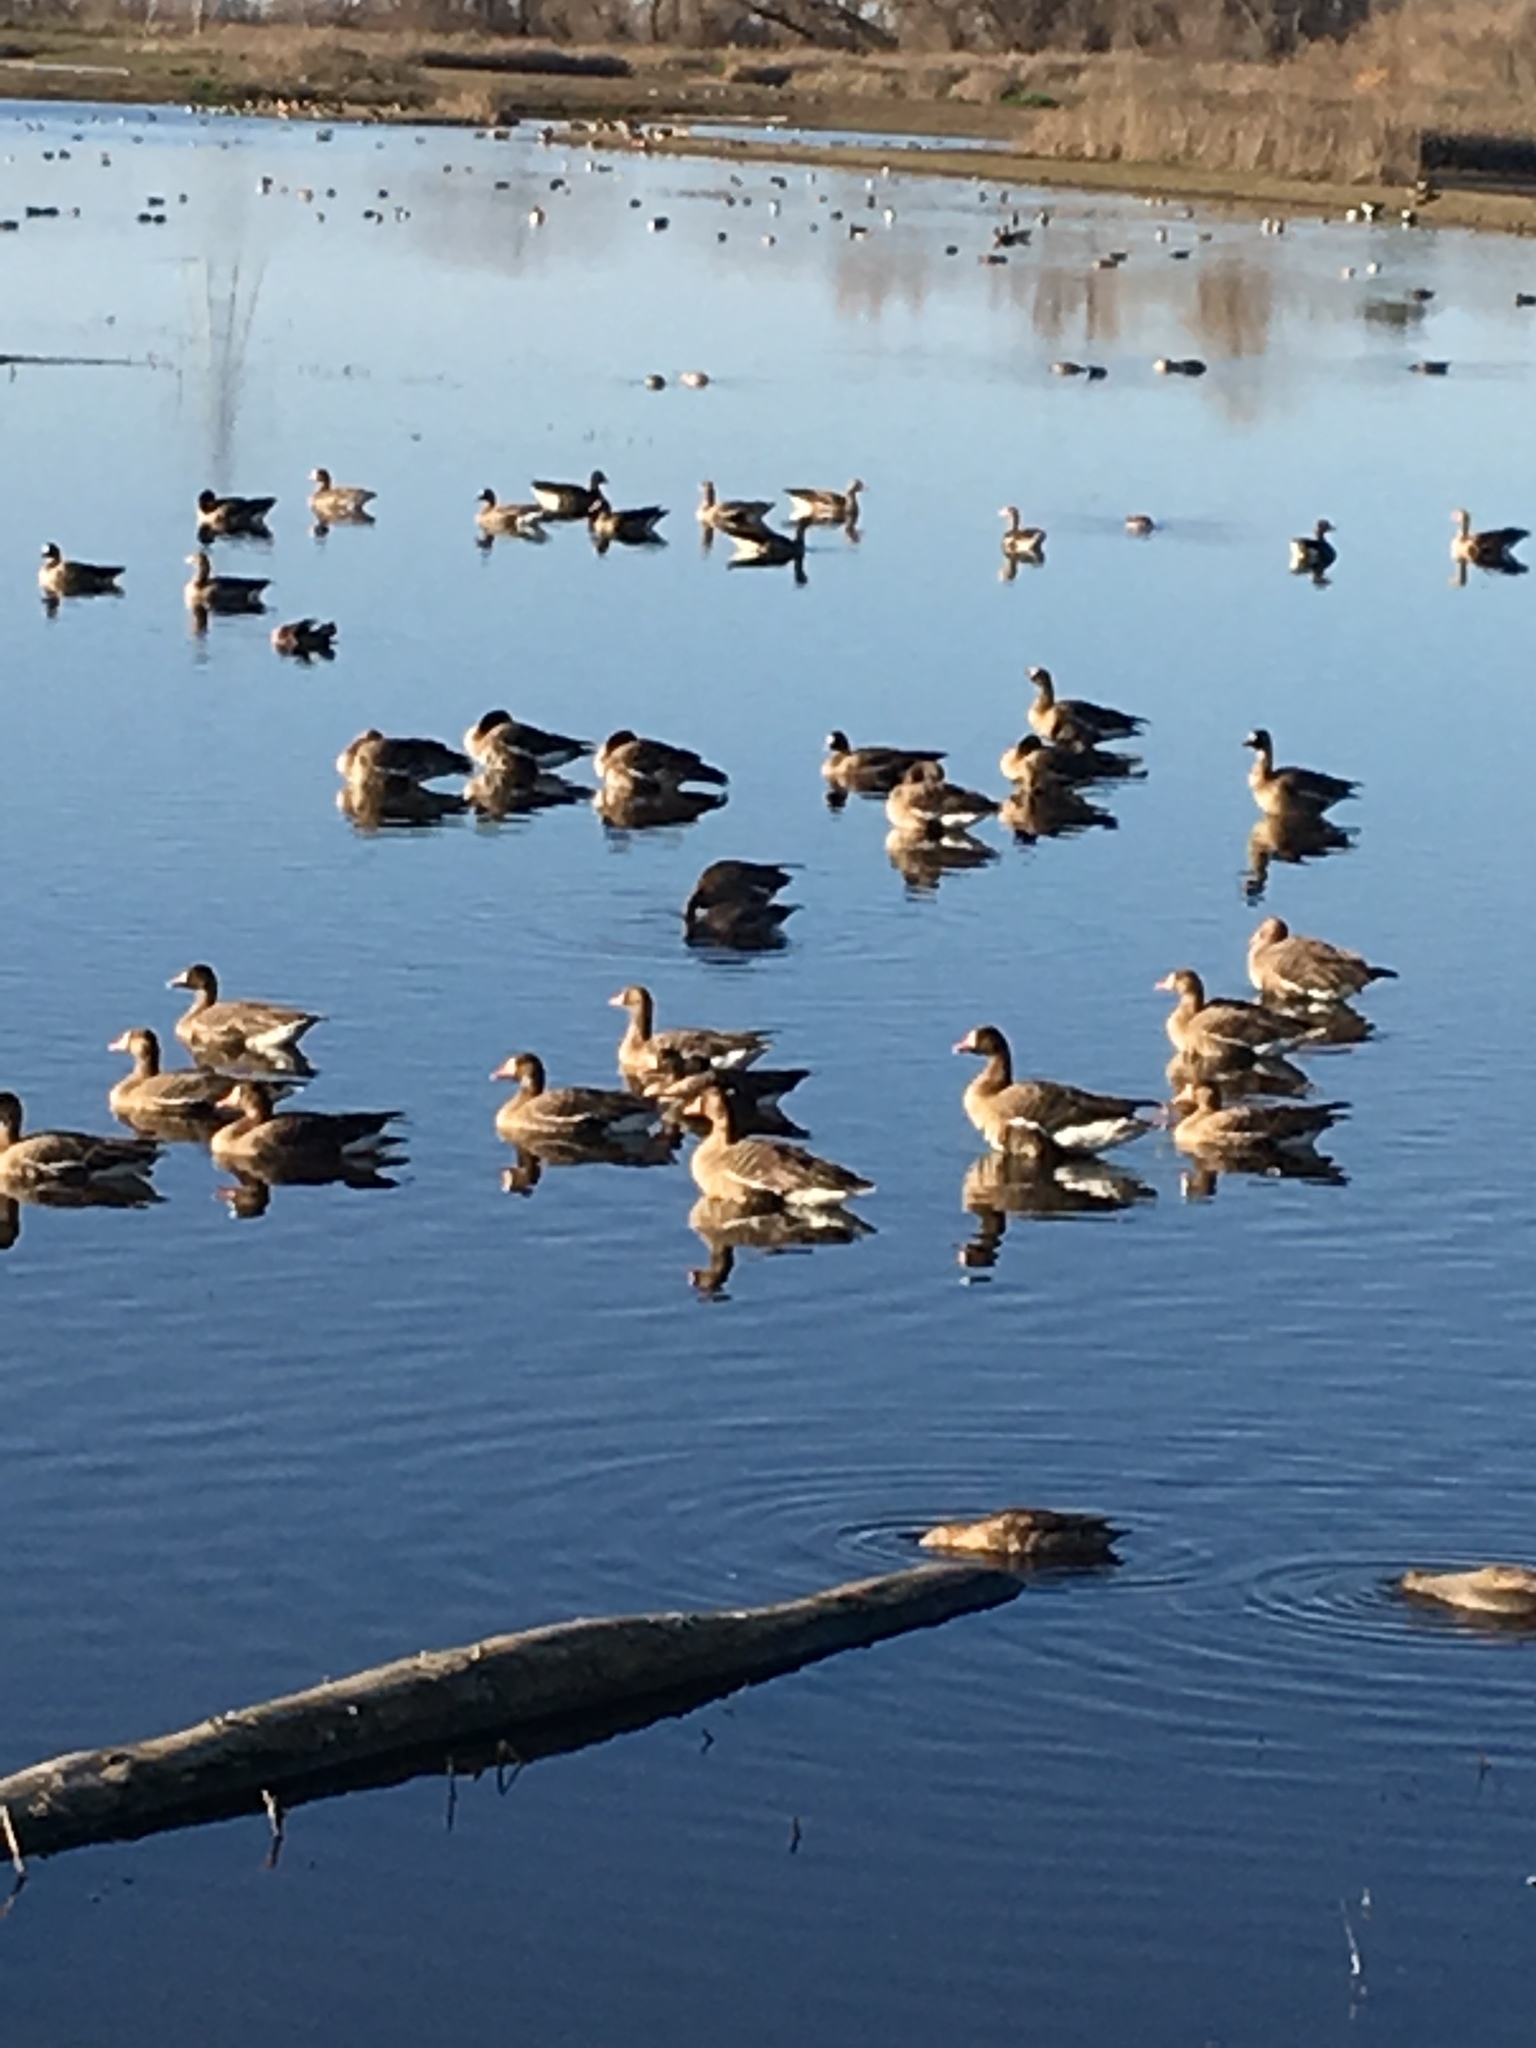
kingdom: Animalia
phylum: Chordata
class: Aves
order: Anseriformes
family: Anatidae
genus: Anser
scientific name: Anser albifrons
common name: Greater white-fronted goose
